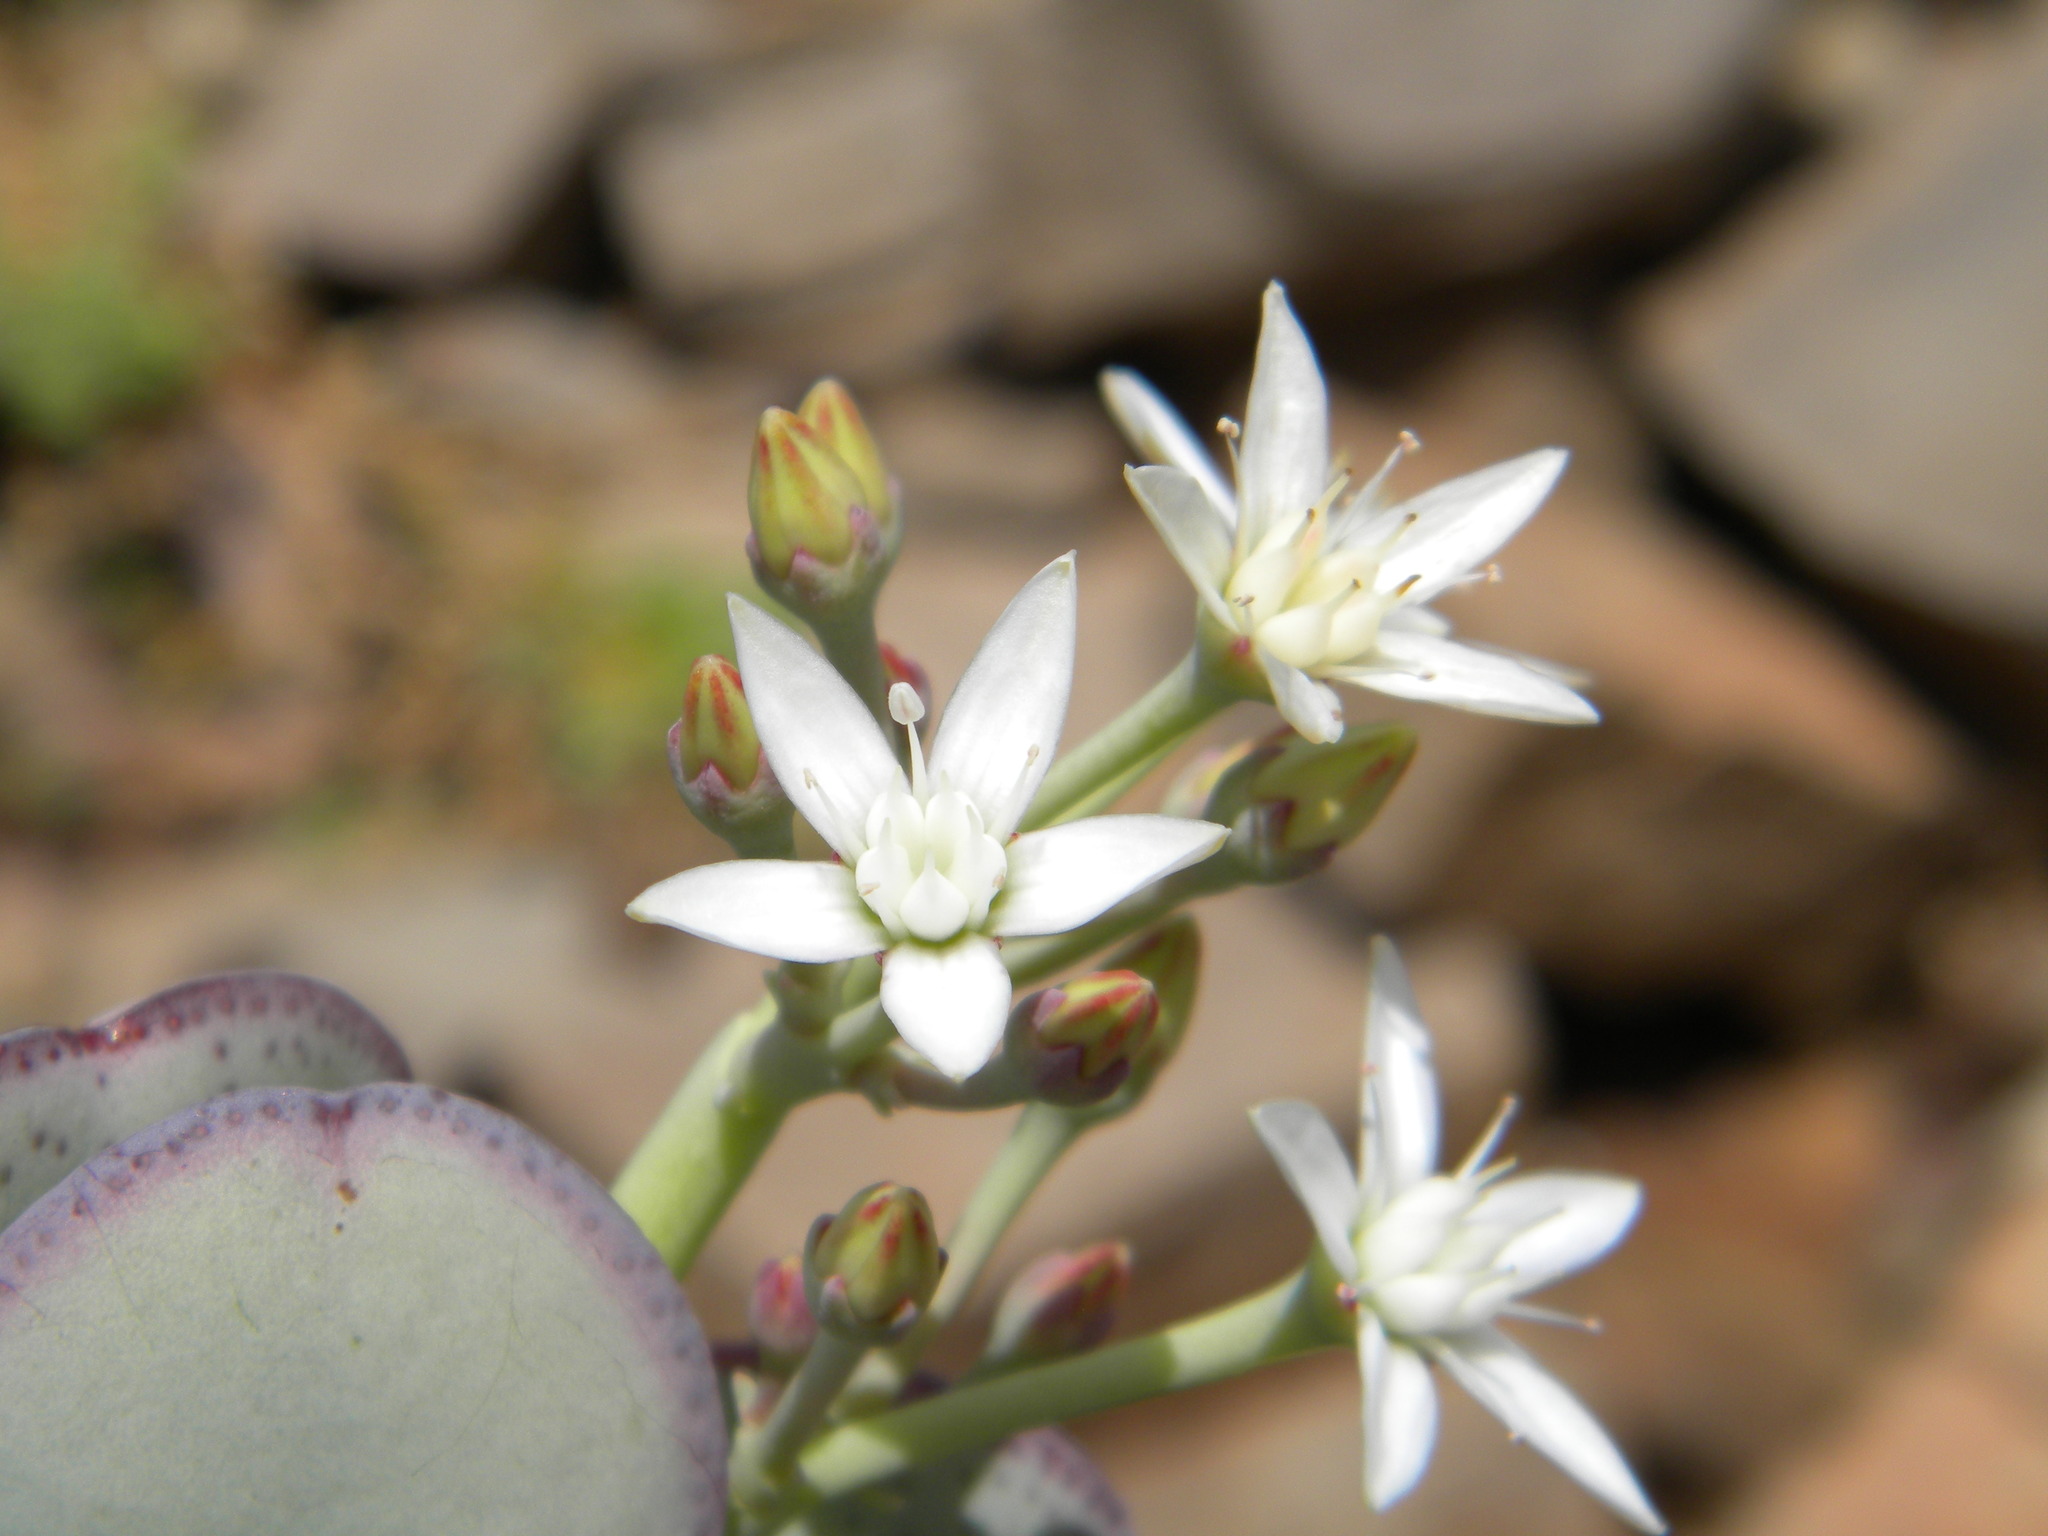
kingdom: Plantae
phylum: Tracheophyta
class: Magnoliopsida
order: Saxifragales
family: Crassulaceae
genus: Crassula
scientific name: Crassula arborescens
